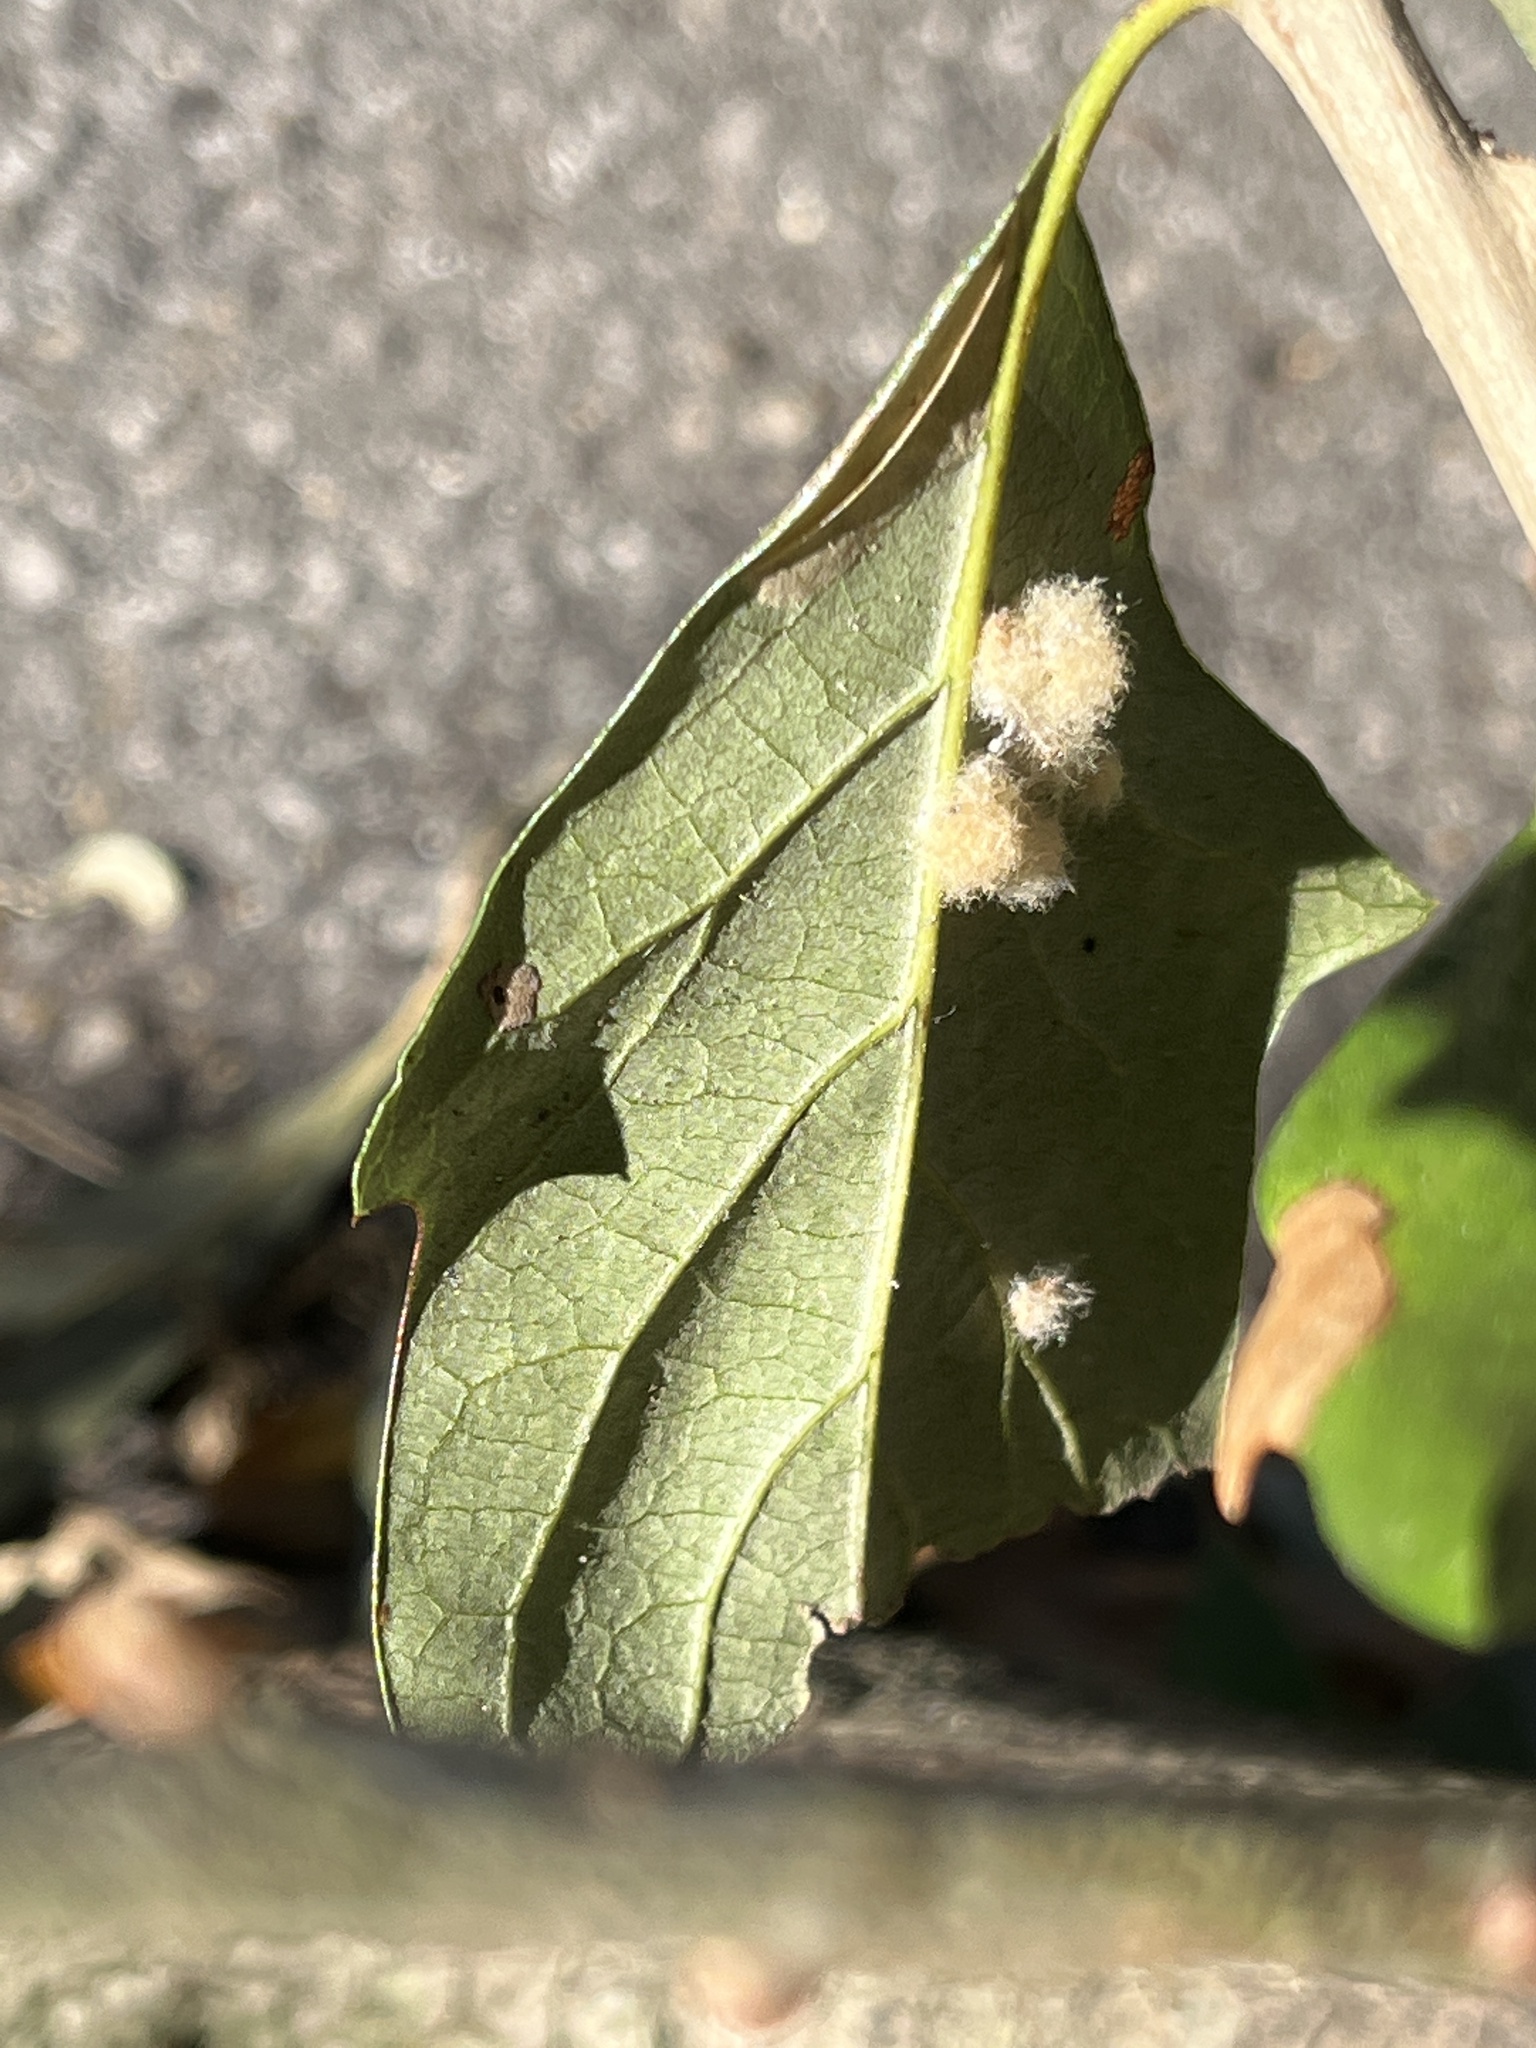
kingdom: Animalia
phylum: Arthropoda
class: Insecta
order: Hymenoptera
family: Cynipidae
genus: Andricus
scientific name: Andricus Druon quercuslanigerum
